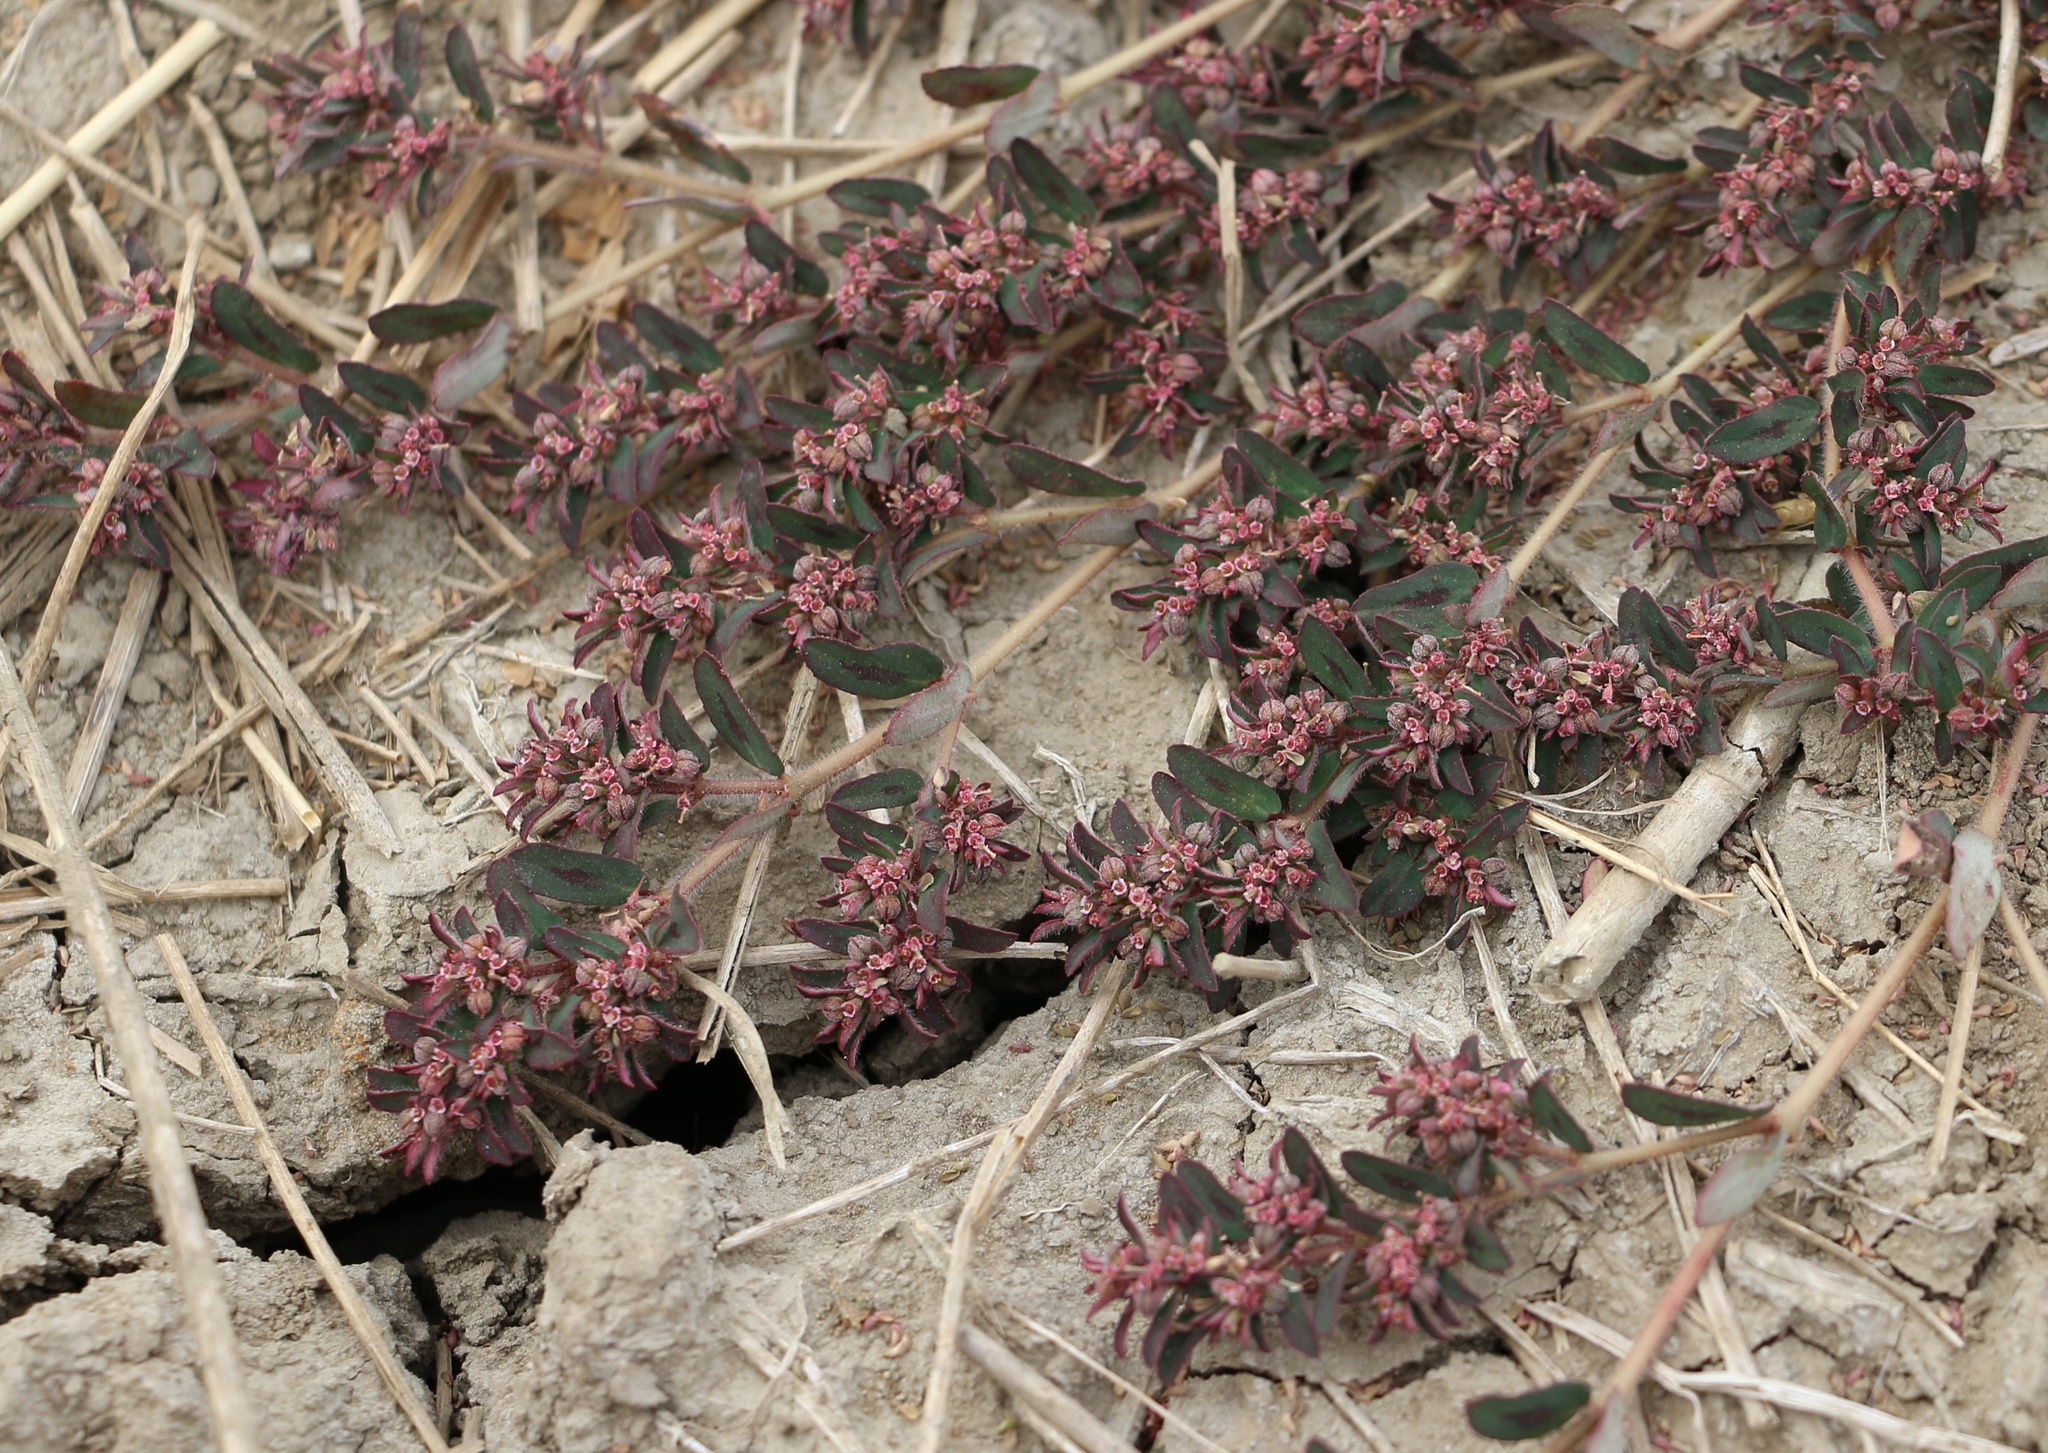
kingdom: Plantae
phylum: Tracheophyta
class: Magnoliopsida
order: Malpighiales
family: Euphorbiaceae
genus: Euphorbia
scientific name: Euphorbia maculata
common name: Spotted spurge
